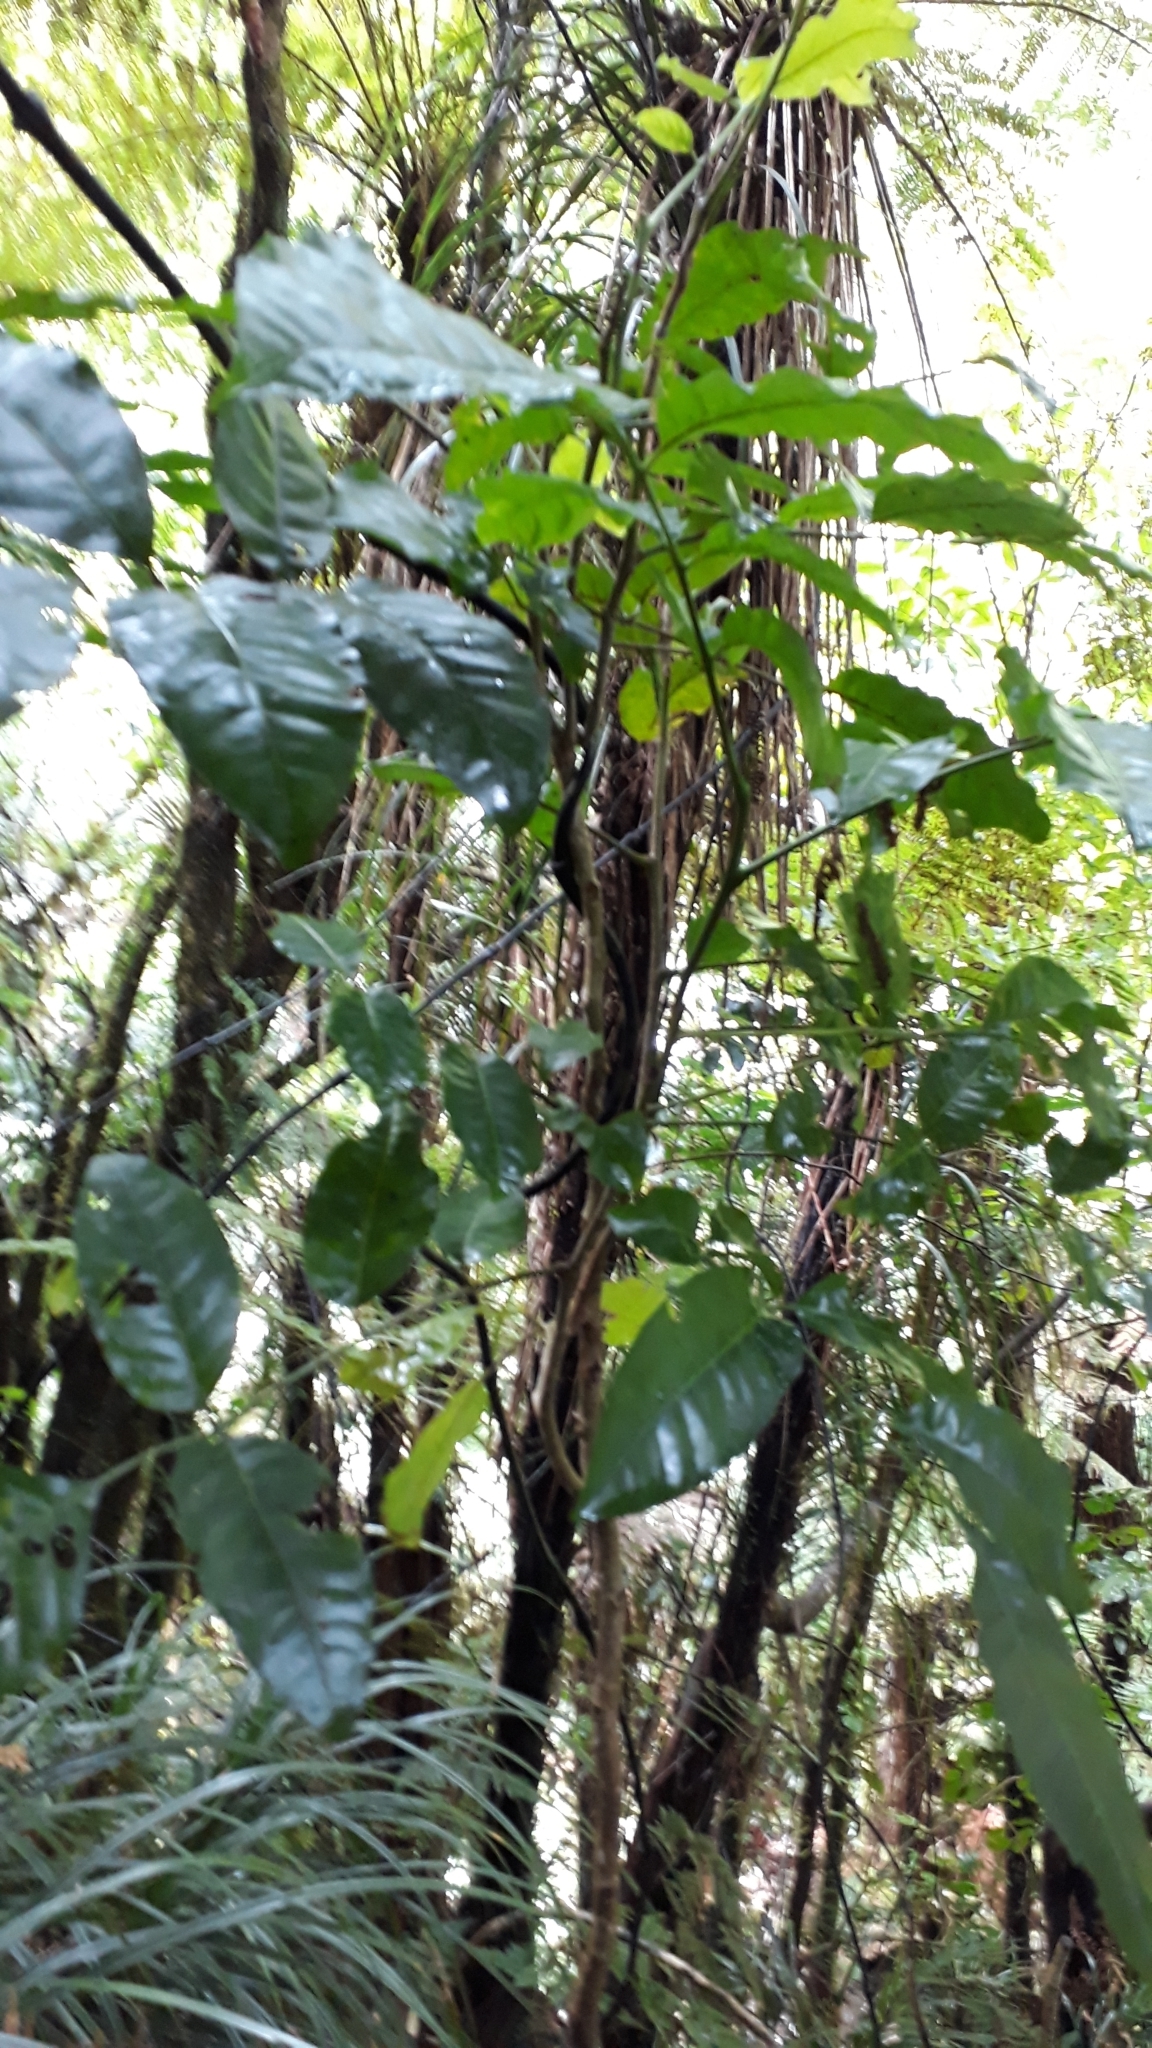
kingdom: Plantae
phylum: Tracheophyta
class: Magnoliopsida
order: Sapindales
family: Meliaceae
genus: Didymocheton
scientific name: Didymocheton spectabilis
